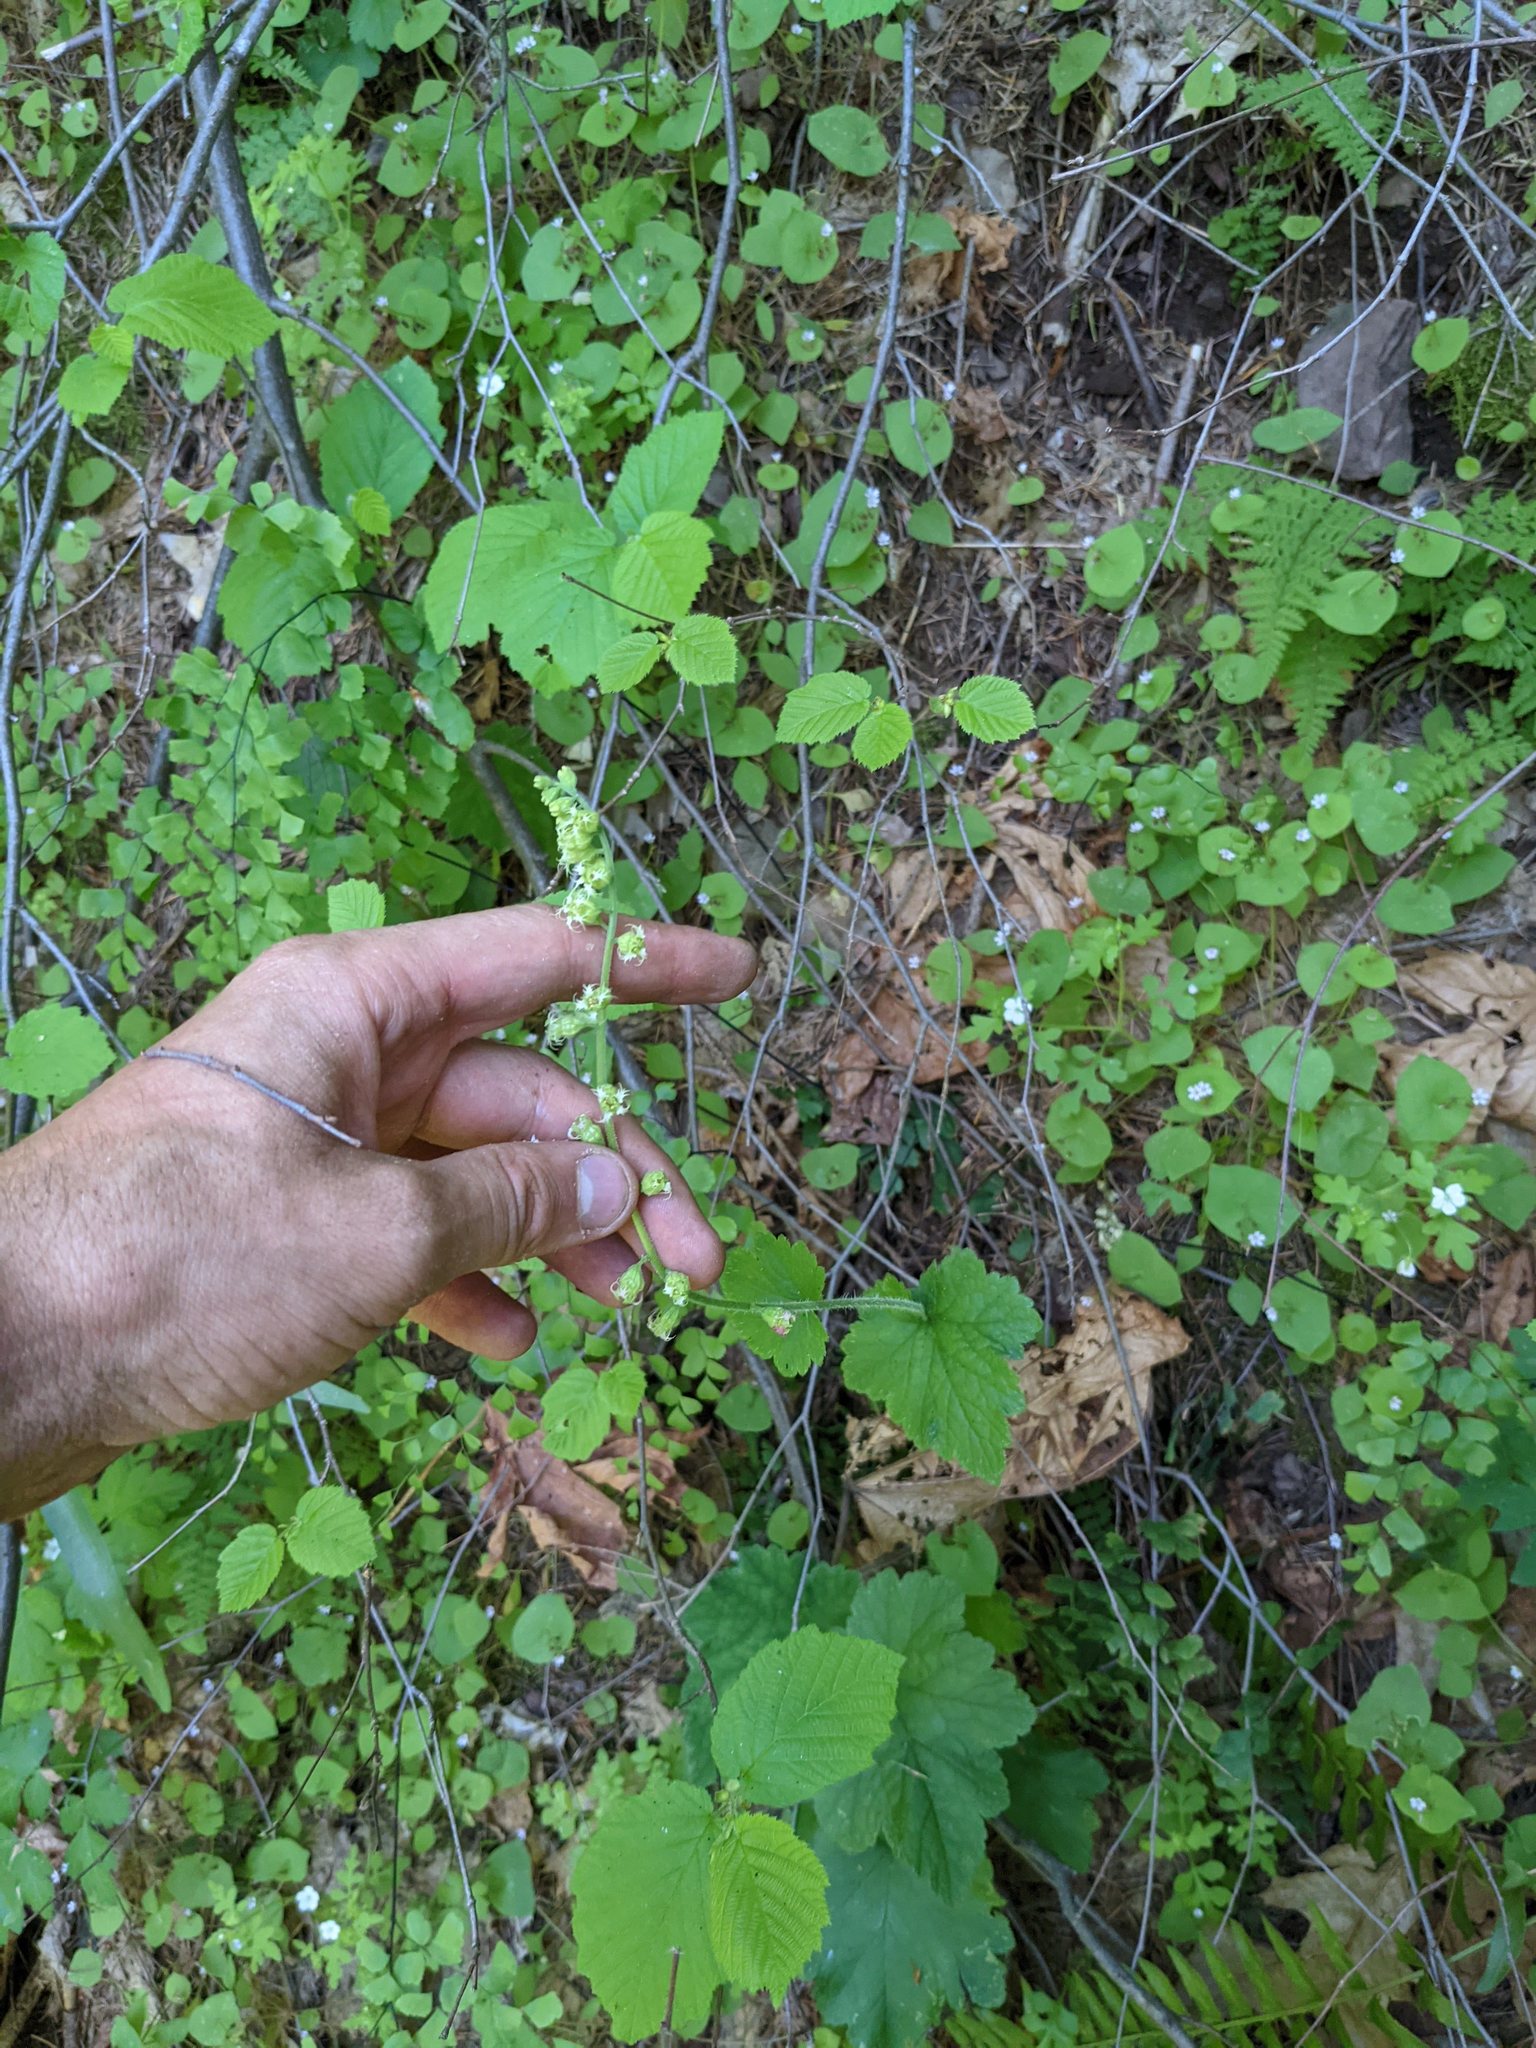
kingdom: Plantae
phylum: Tracheophyta
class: Magnoliopsida
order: Saxifragales
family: Saxifragaceae
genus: Tellima
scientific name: Tellima grandiflora
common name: Fringecups
